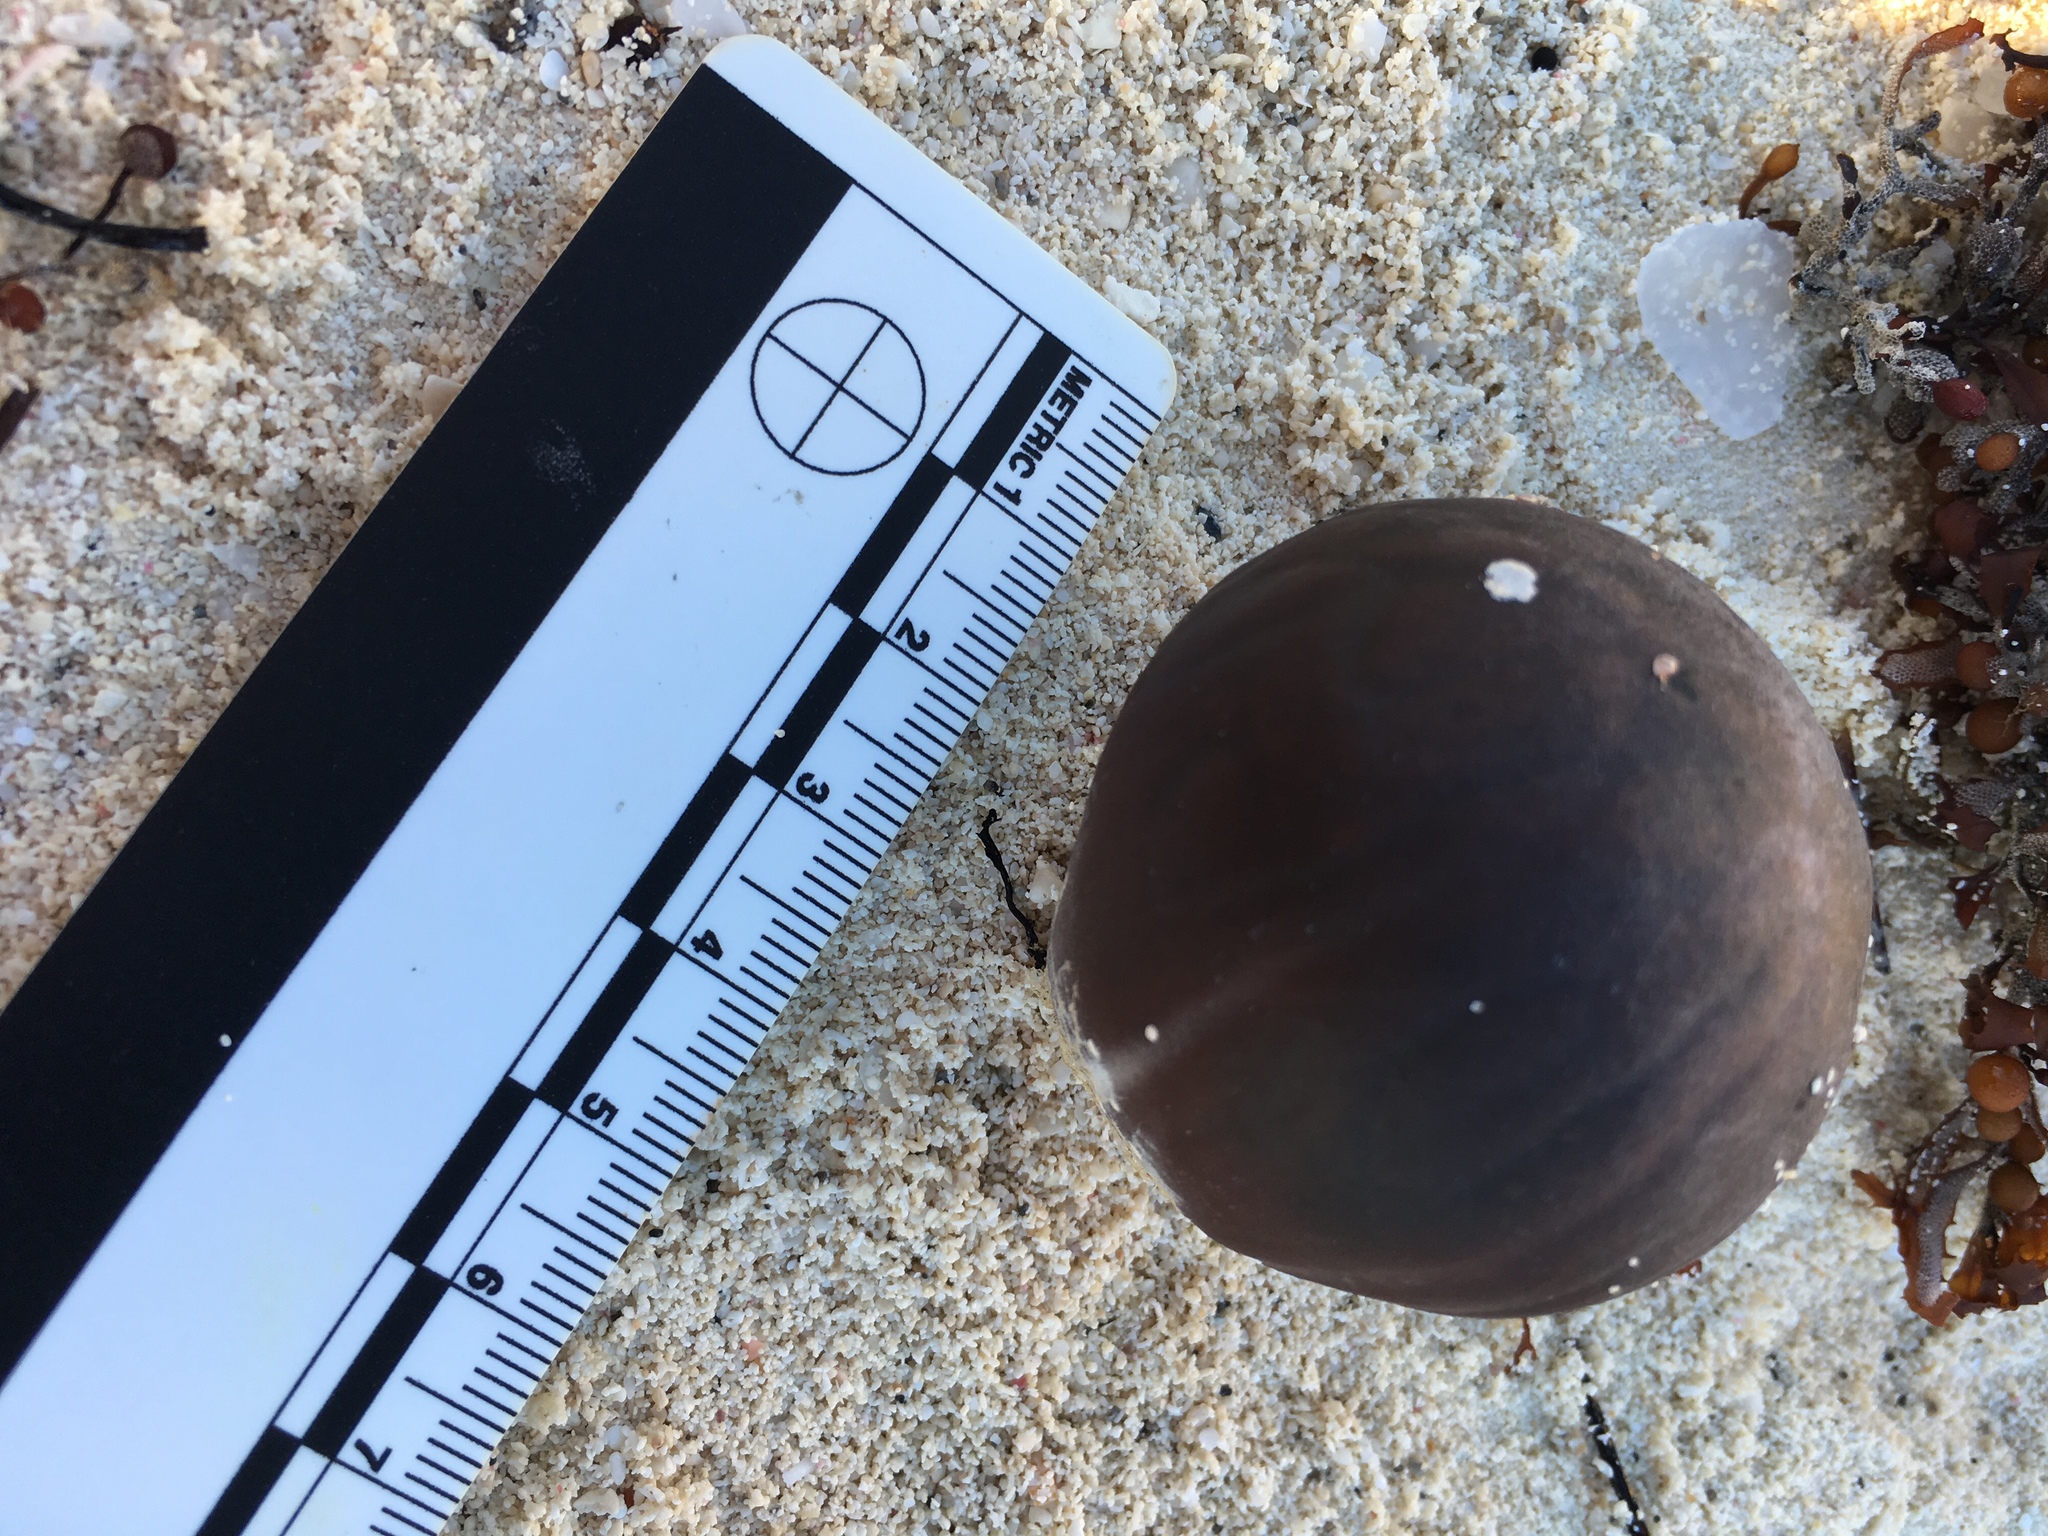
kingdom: Plantae
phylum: Tracheophyta
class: Liliopsida
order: Arecales
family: Arecaceae
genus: Manicaria
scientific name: Manicaria saccifera
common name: Sea coconut
